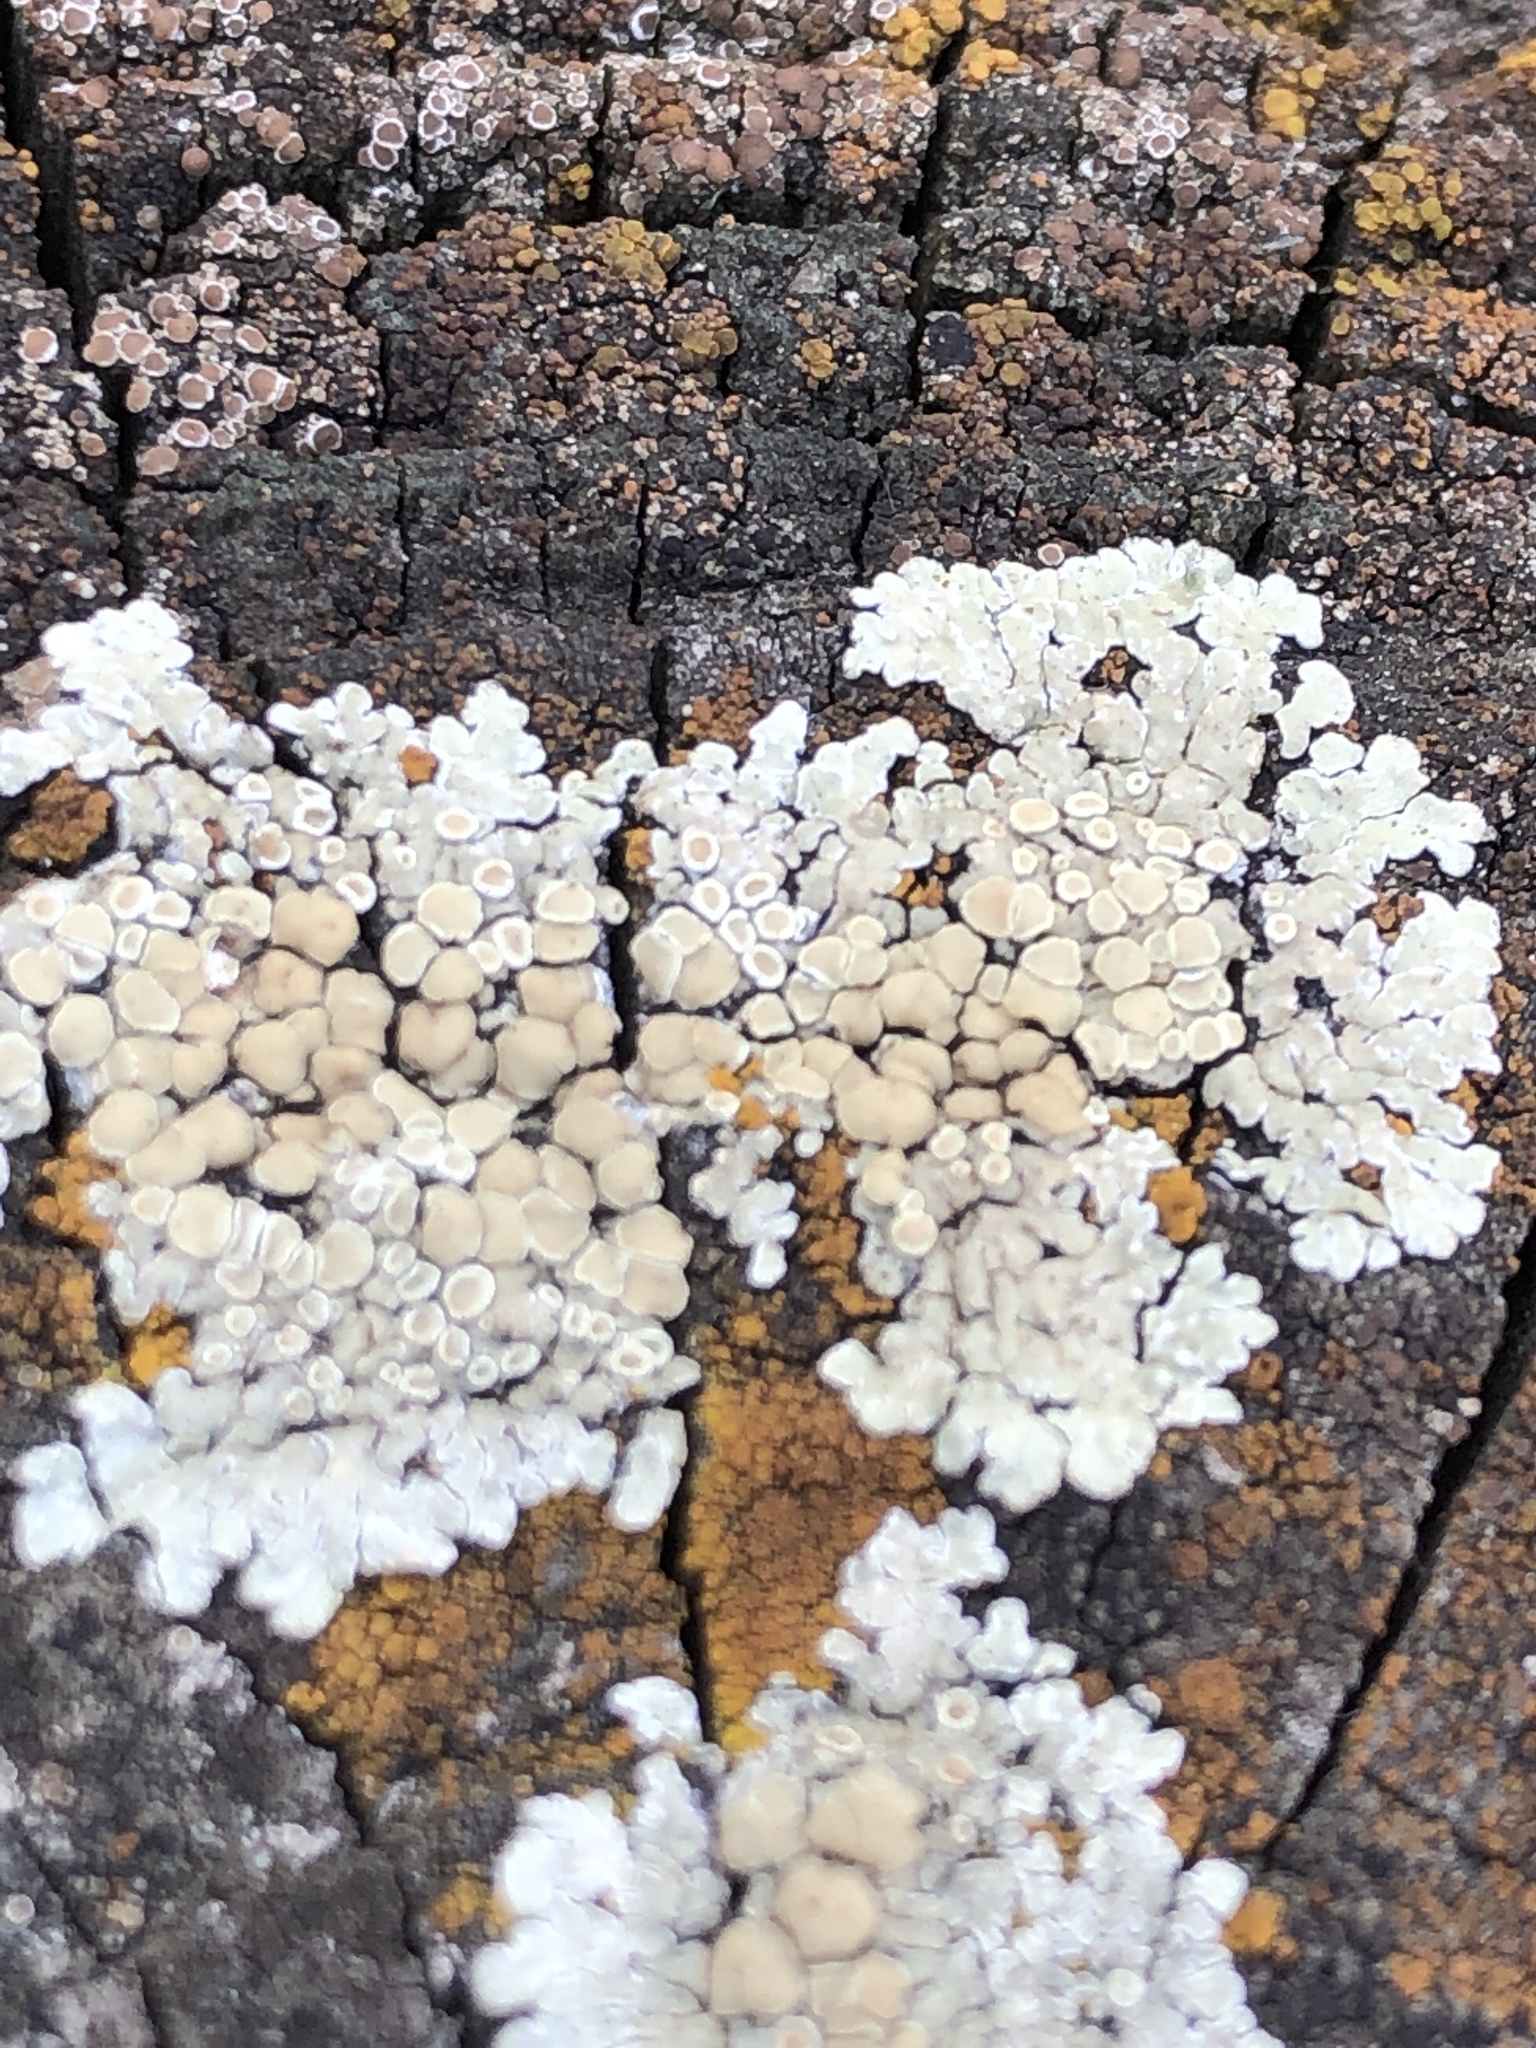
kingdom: Fungi
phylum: Ascomycota
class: Lecanoromycetes
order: Lecanorales
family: Lecanoraceae
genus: Protoparmeliopsis
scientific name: Protoparmeliopsis muralis
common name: Stonewall rim lichen
